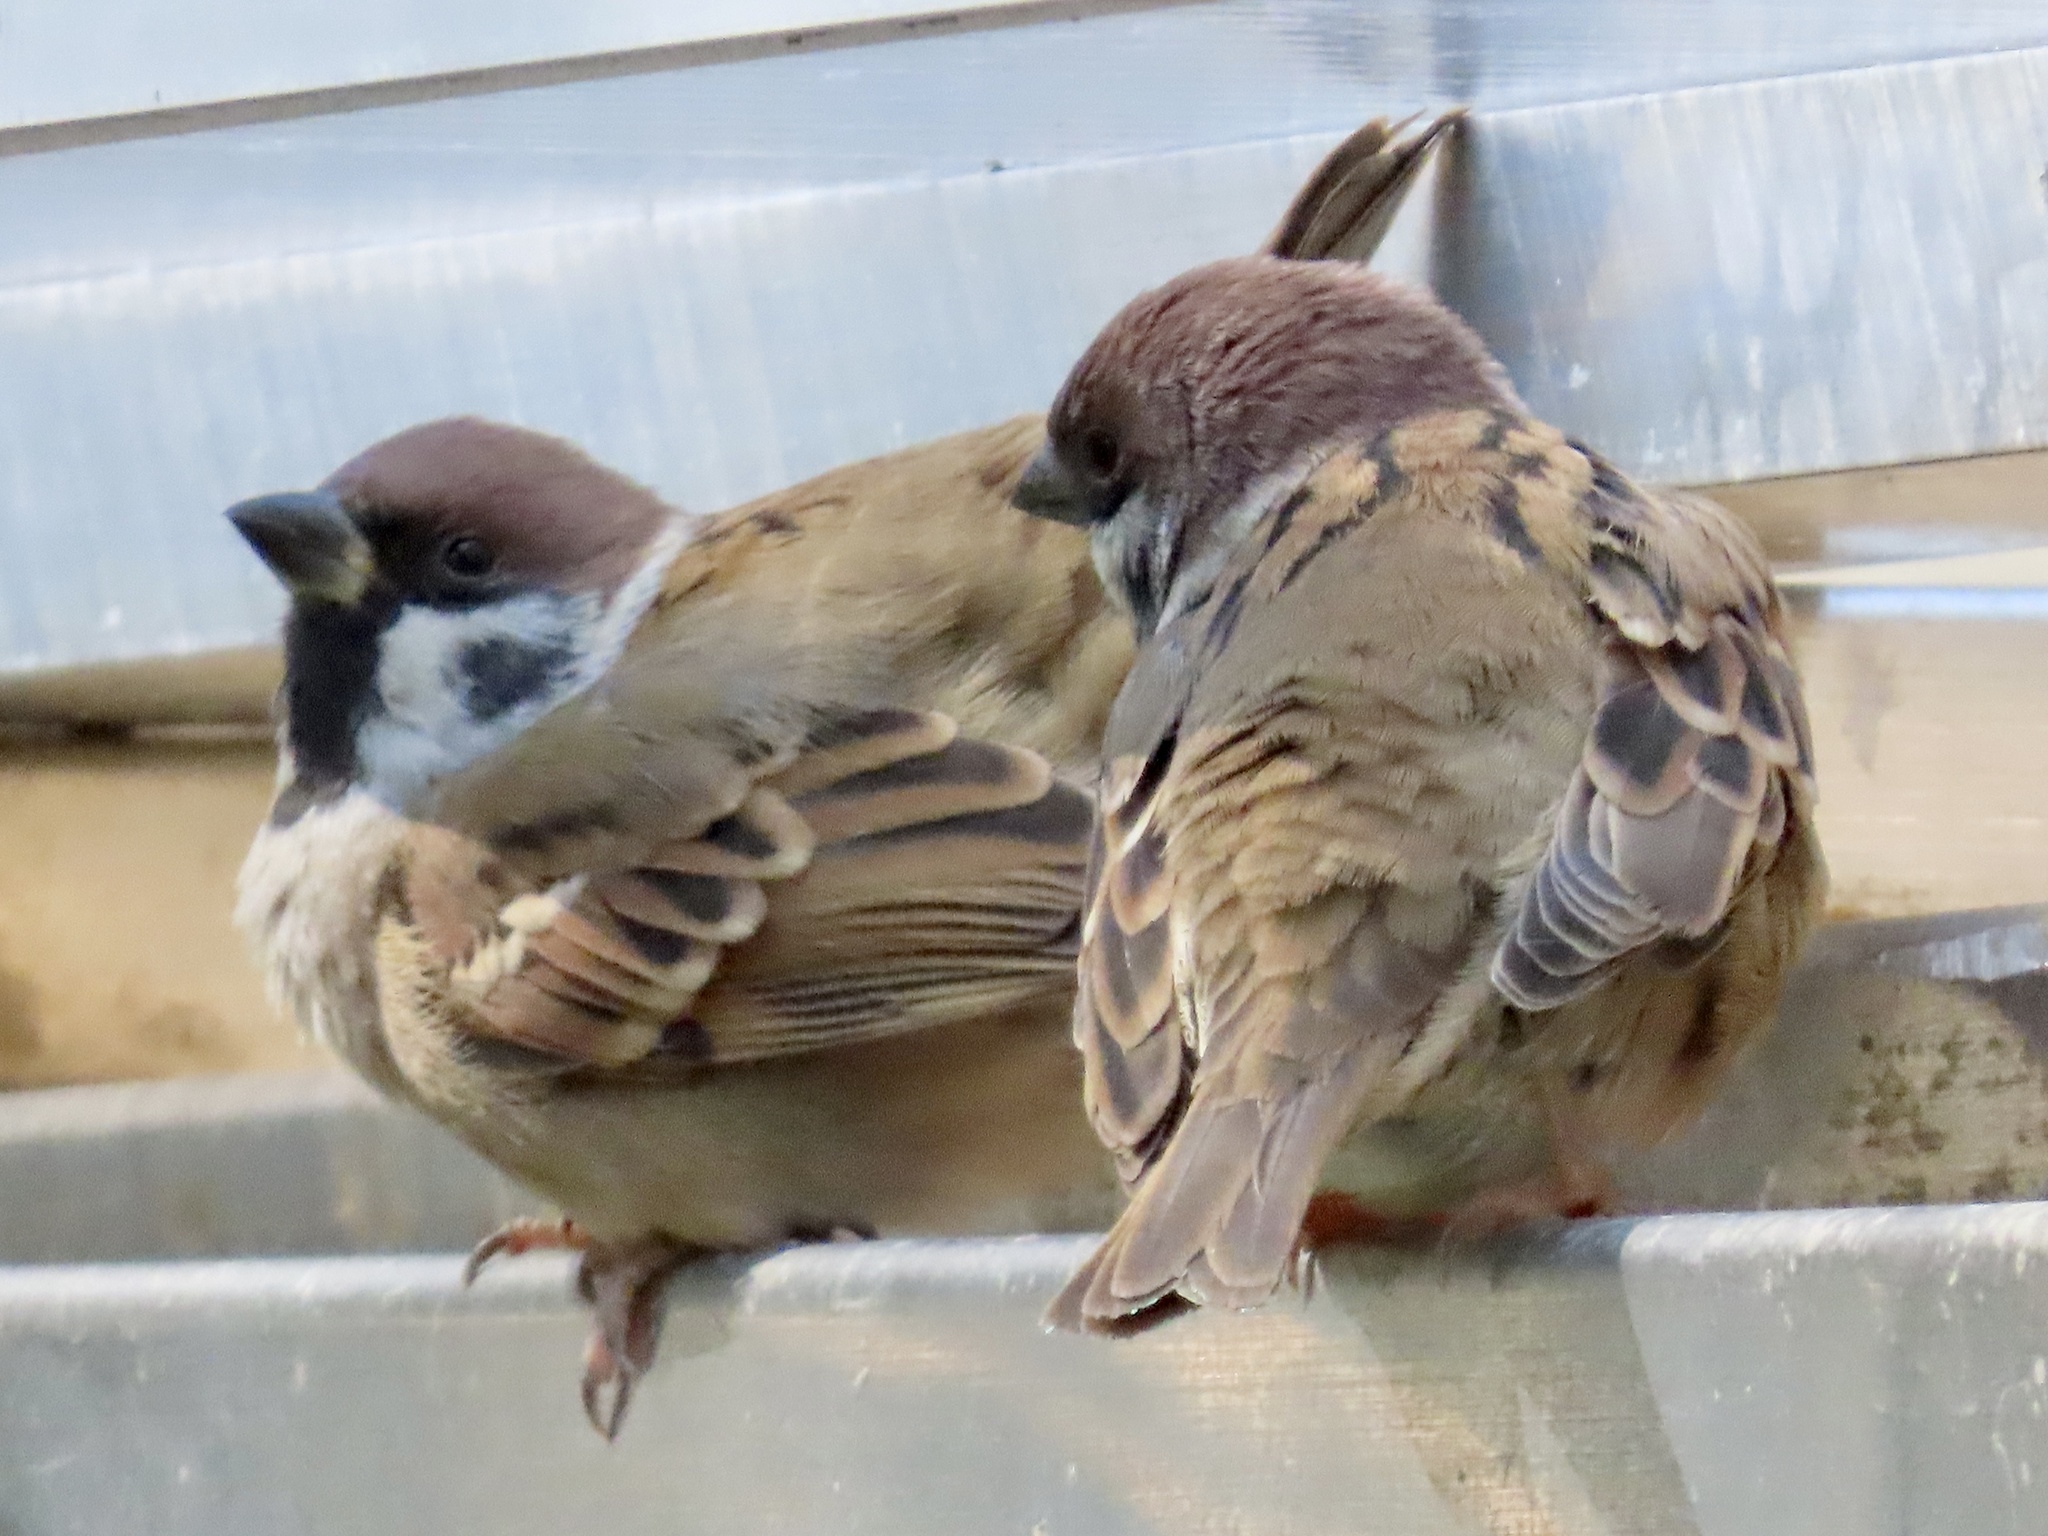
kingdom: Animalia
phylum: Chordata
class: Aves
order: Passeriformes
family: Passeridae
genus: Passer
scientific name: Passer montanus
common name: Eurasian tree sparrow
